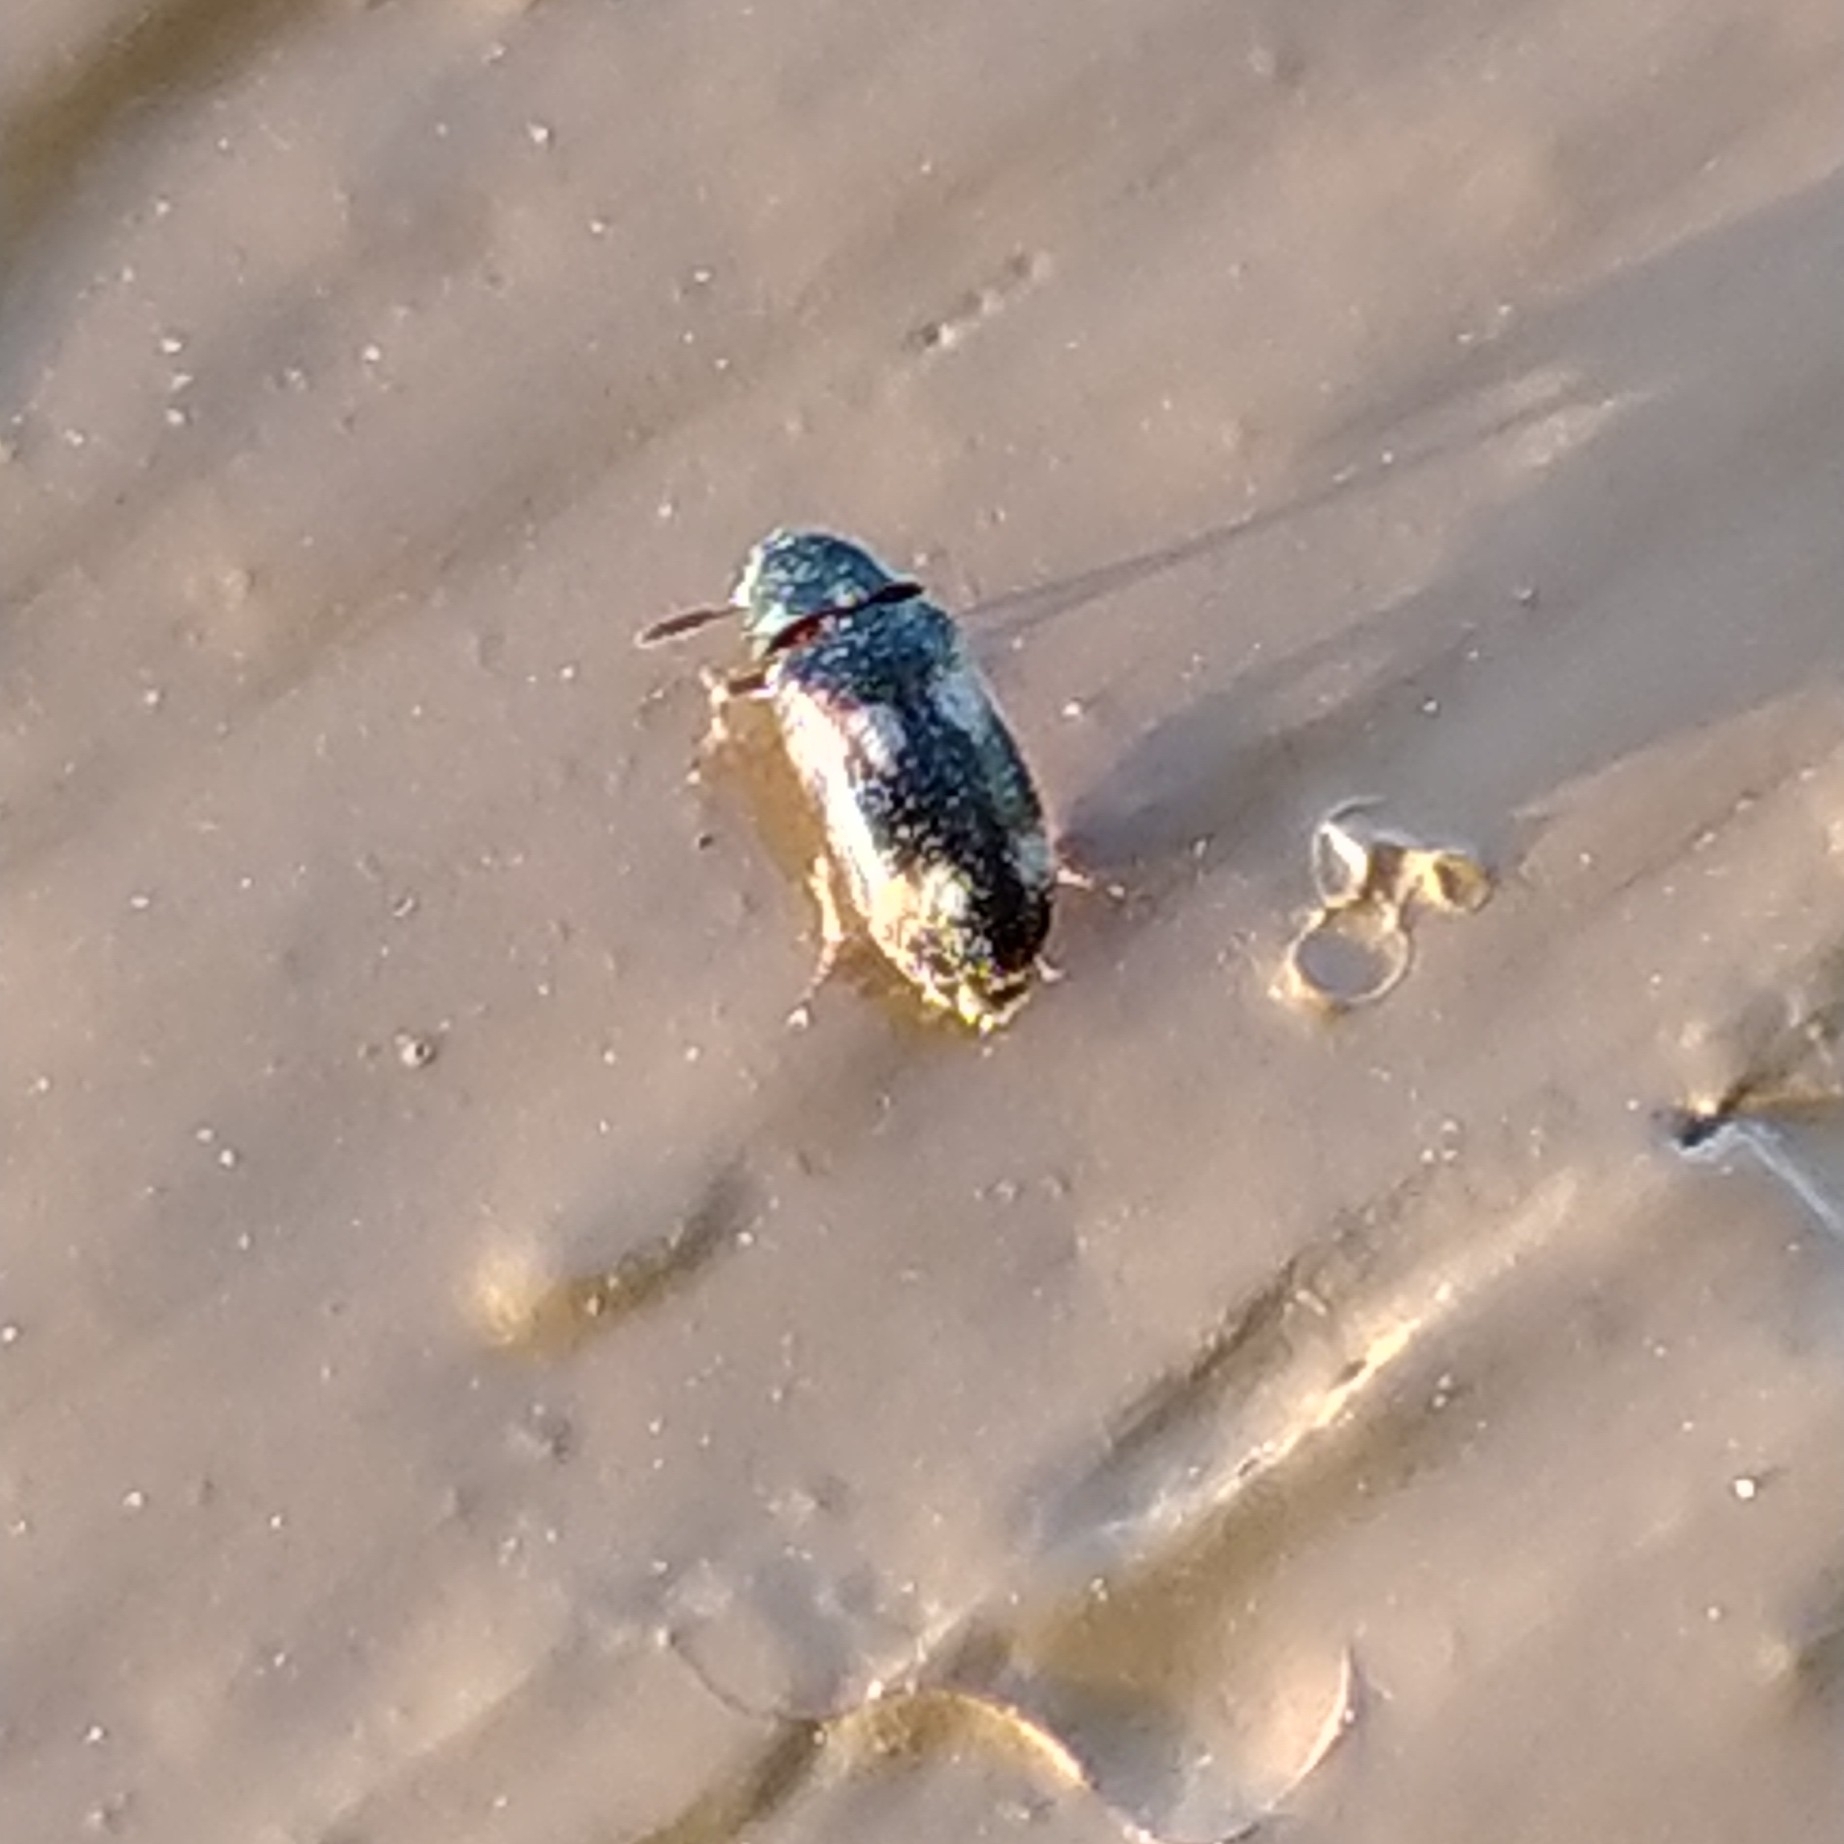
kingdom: Animalia
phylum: Arthropoda
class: Insecta
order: Coleoptera
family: Dermestidae
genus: Megatoma
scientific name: Megatoma tianschanica
